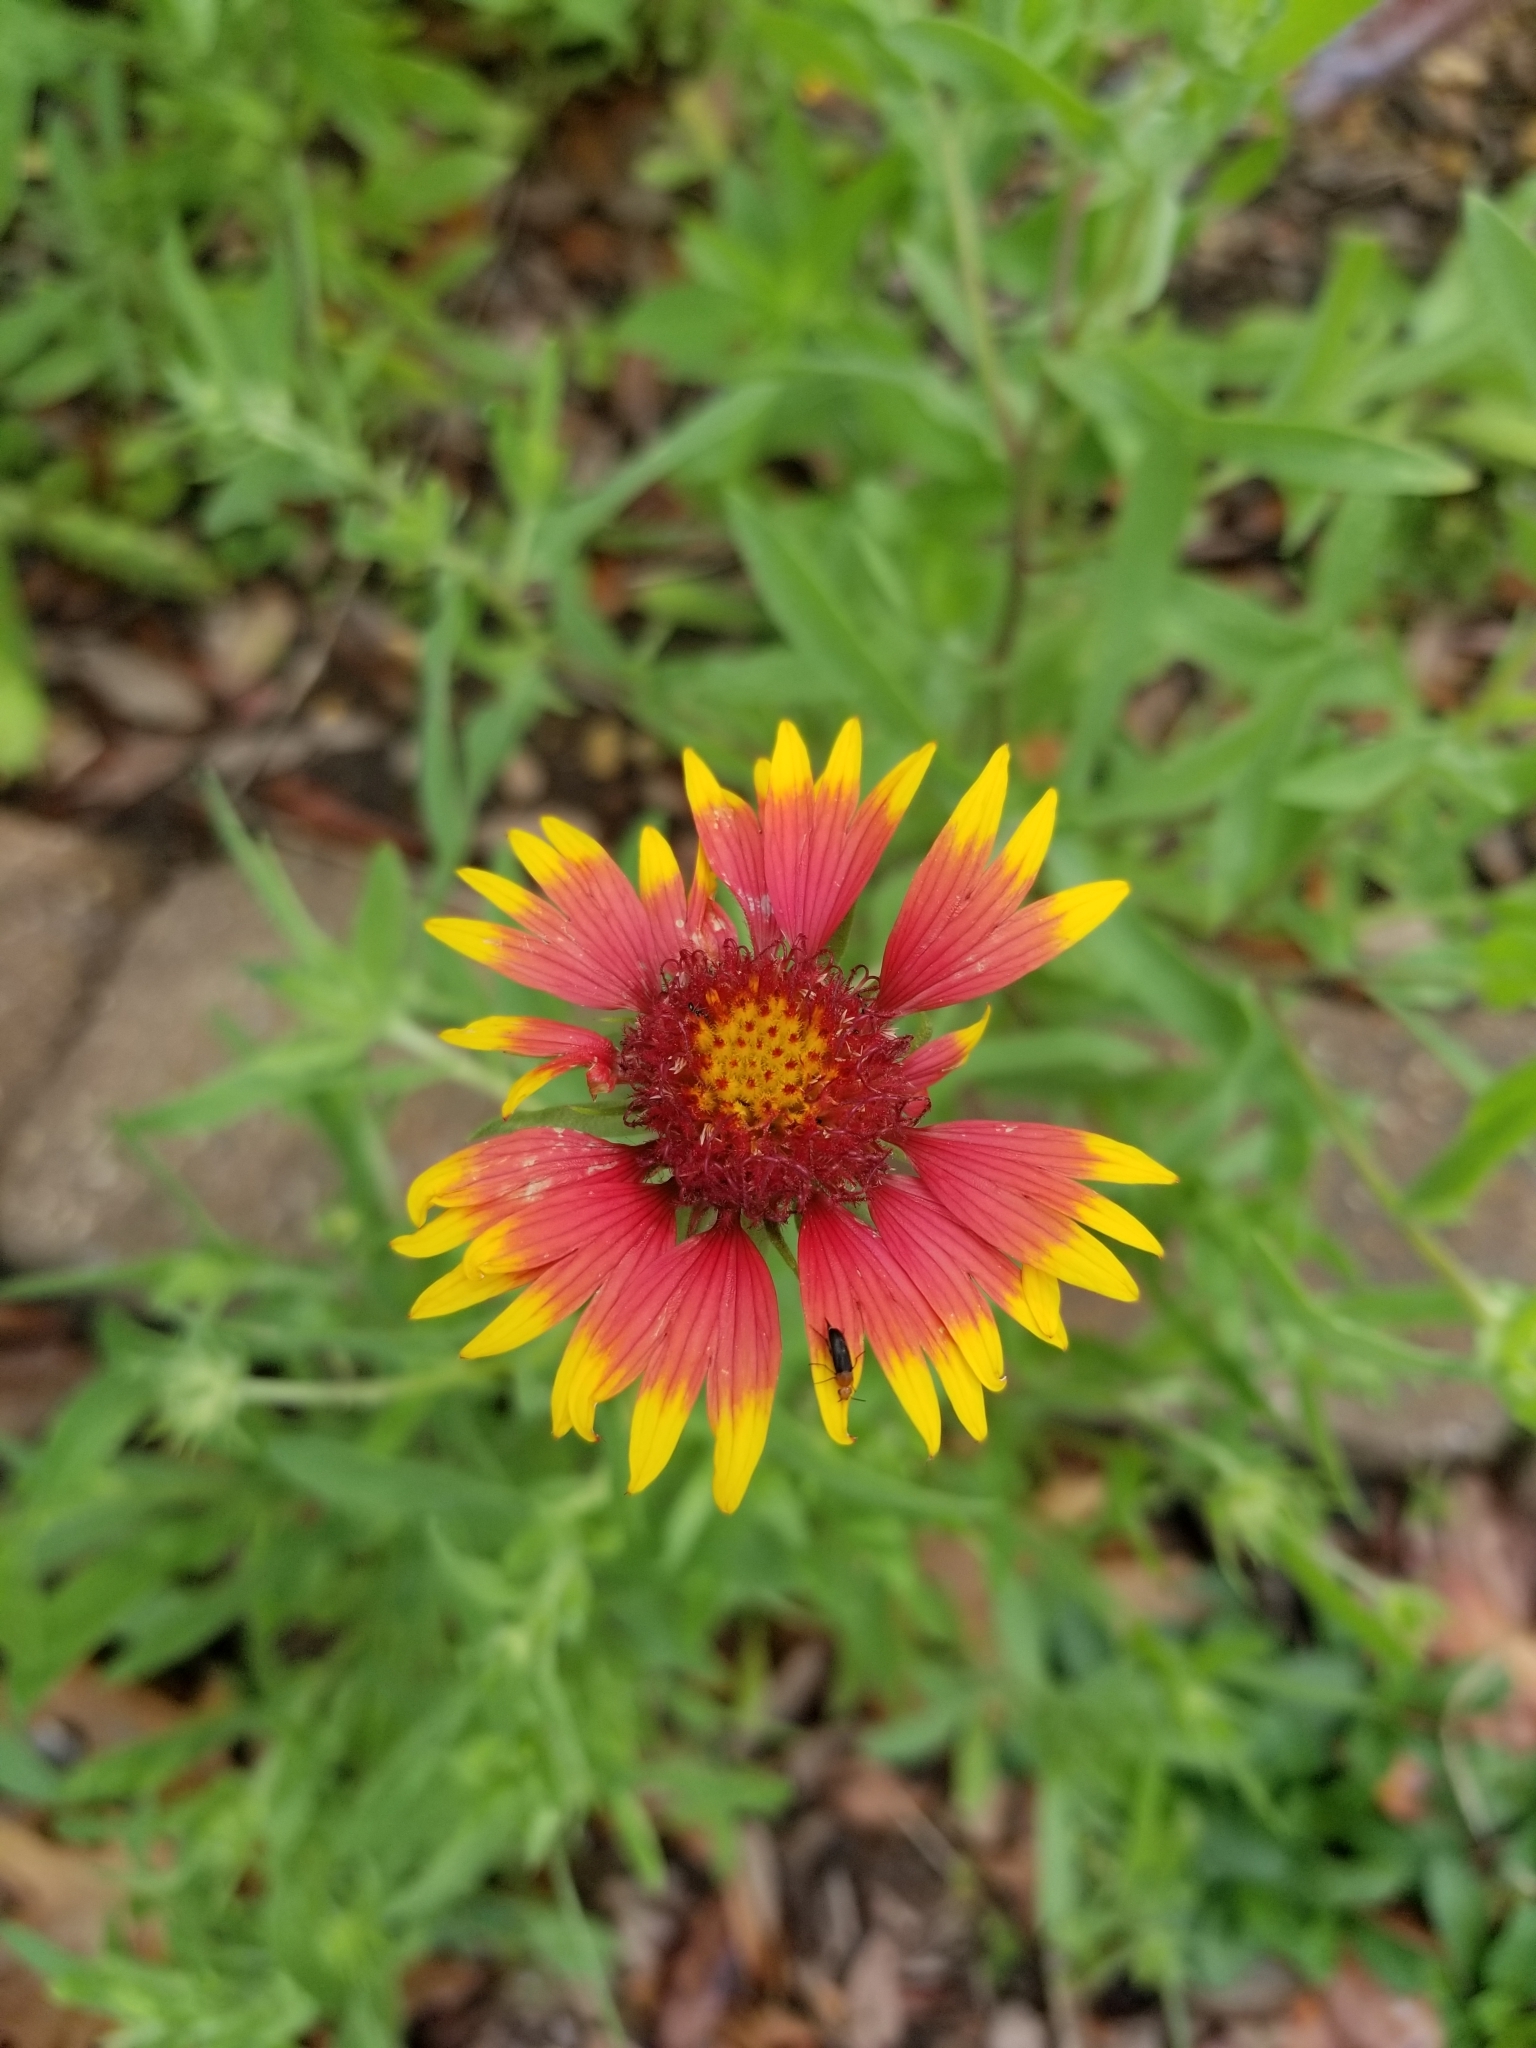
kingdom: Plantae
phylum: Tracheophyta
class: Magnoliopsida
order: Asterales
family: Asteraceae
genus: Gaillardia
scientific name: Gaillardia pulchella
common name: Firewheel
